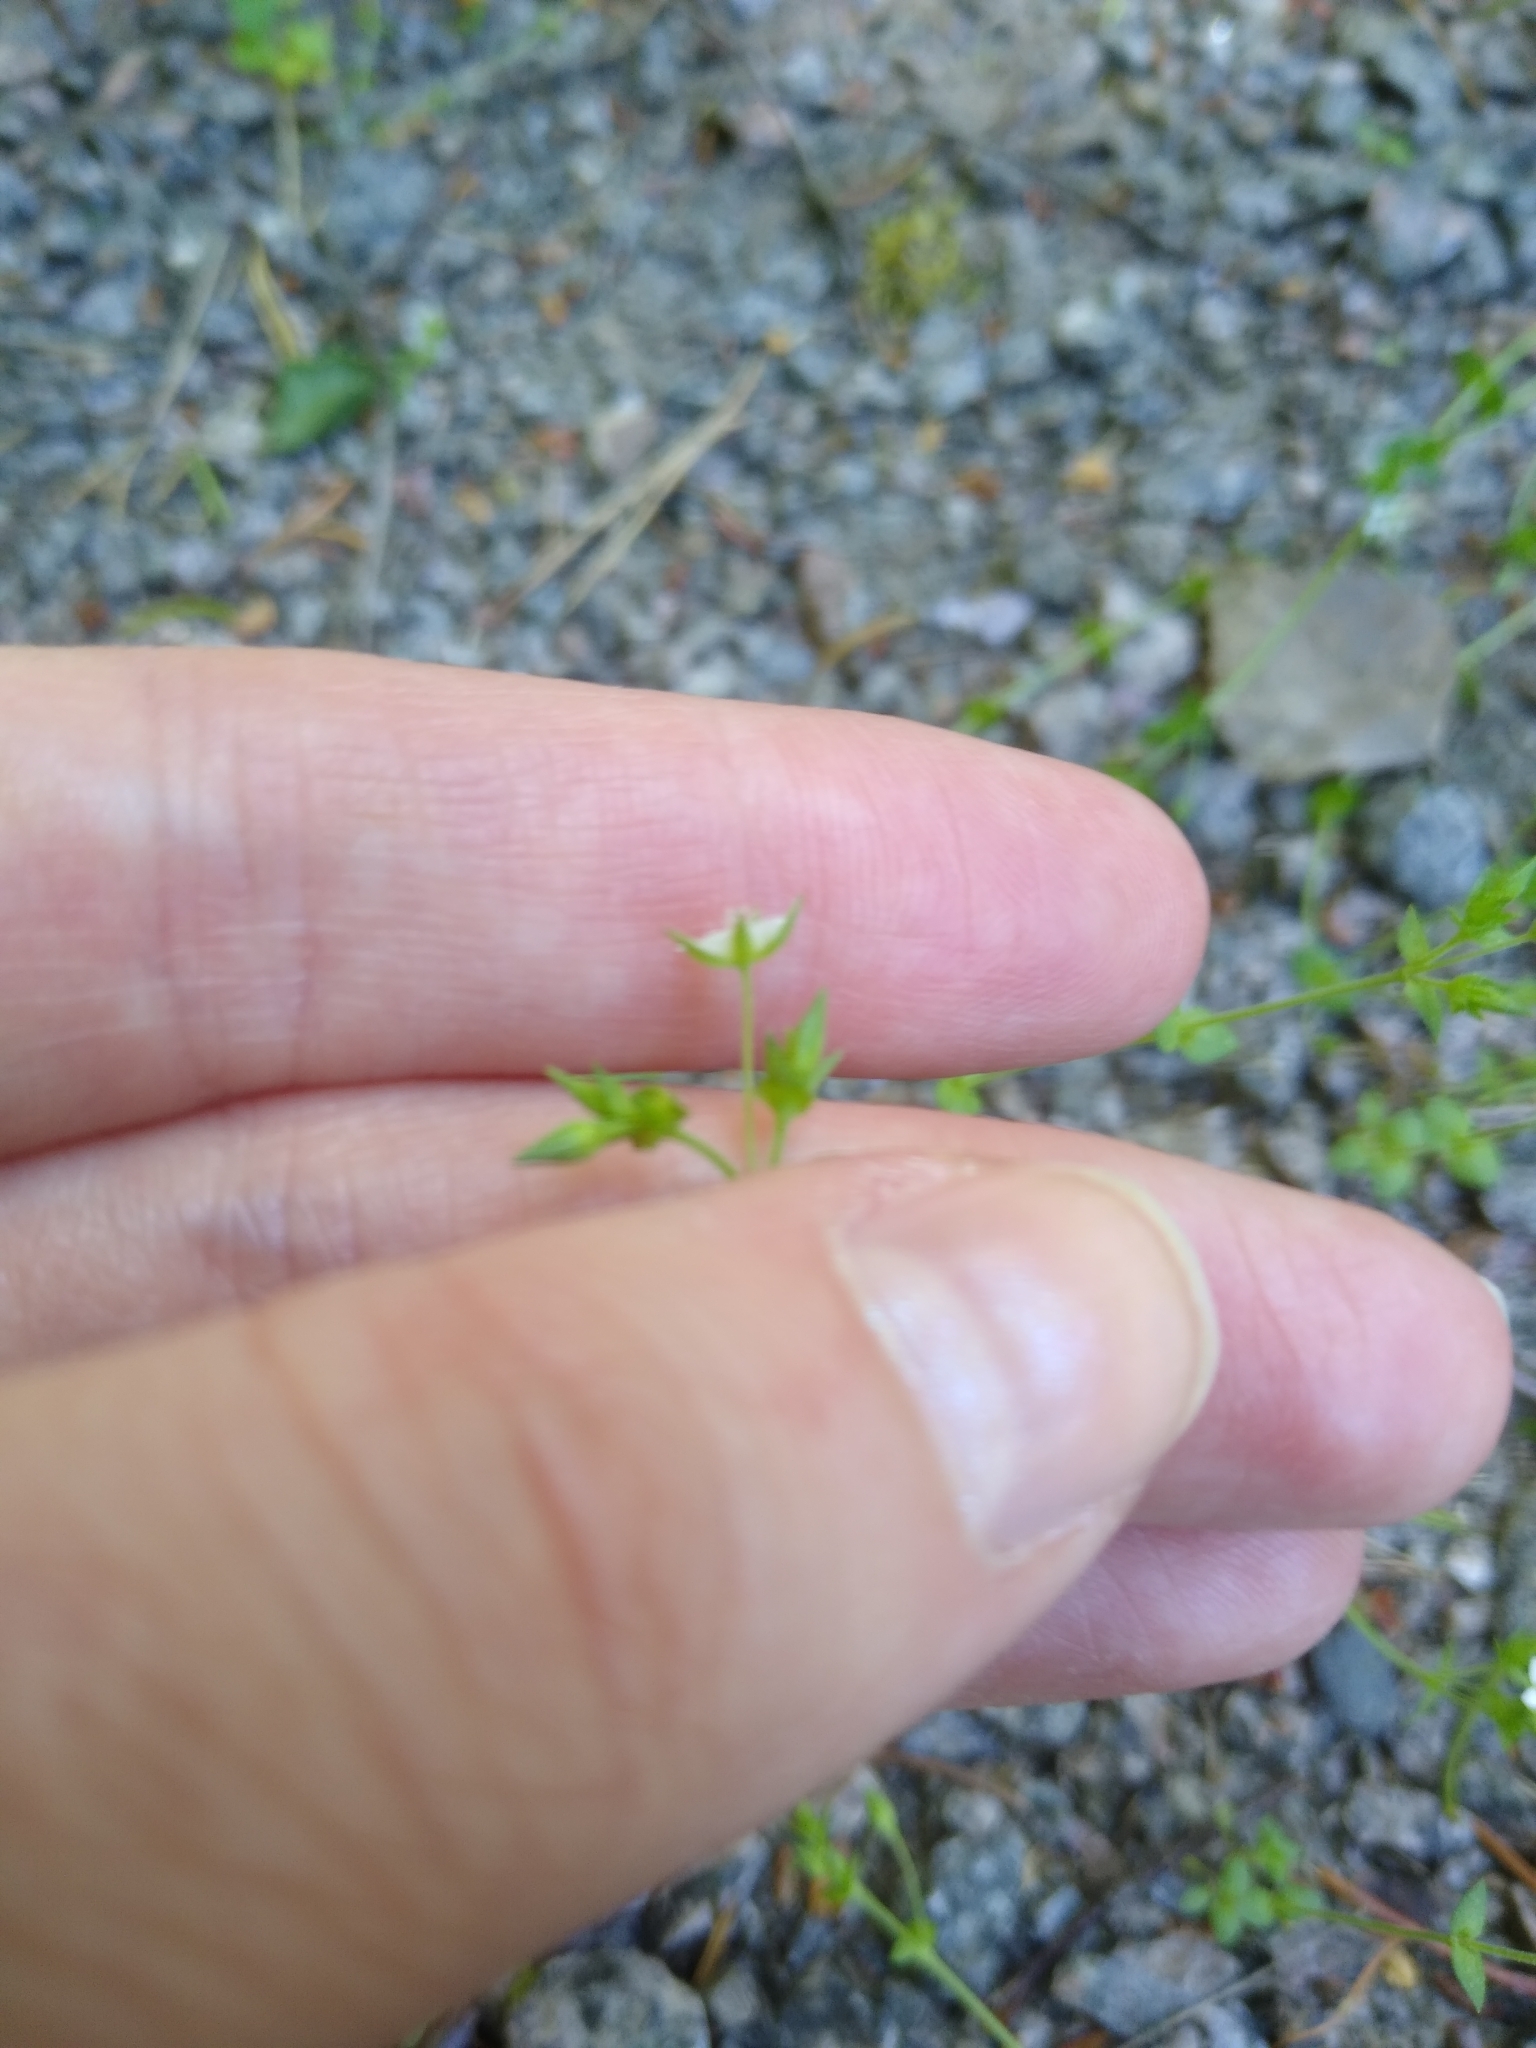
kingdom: Plantae
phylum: Tracheophyta
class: Magnoliopsida
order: Caryophyllales
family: Caryophyllaceae
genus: Arenaria
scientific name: Arenaria serpyllifolia
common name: Thyme-leaved sandwort
